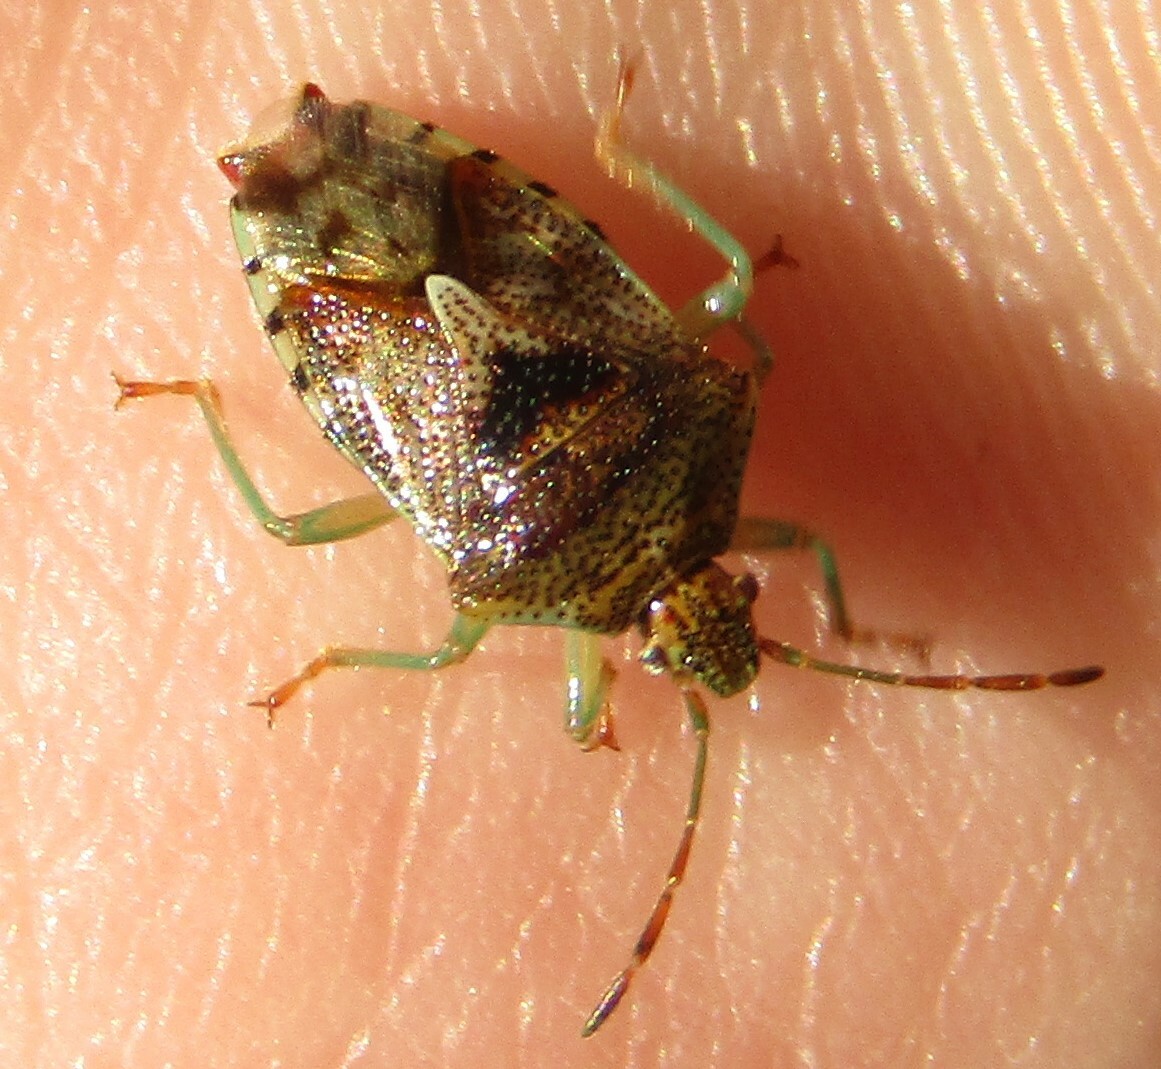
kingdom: Animalia
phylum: Arthropoda
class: Insecta
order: Hemiptera
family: Acanthosomatidae
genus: Elasmucha
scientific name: Elasmucha grisea
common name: Parent bug
